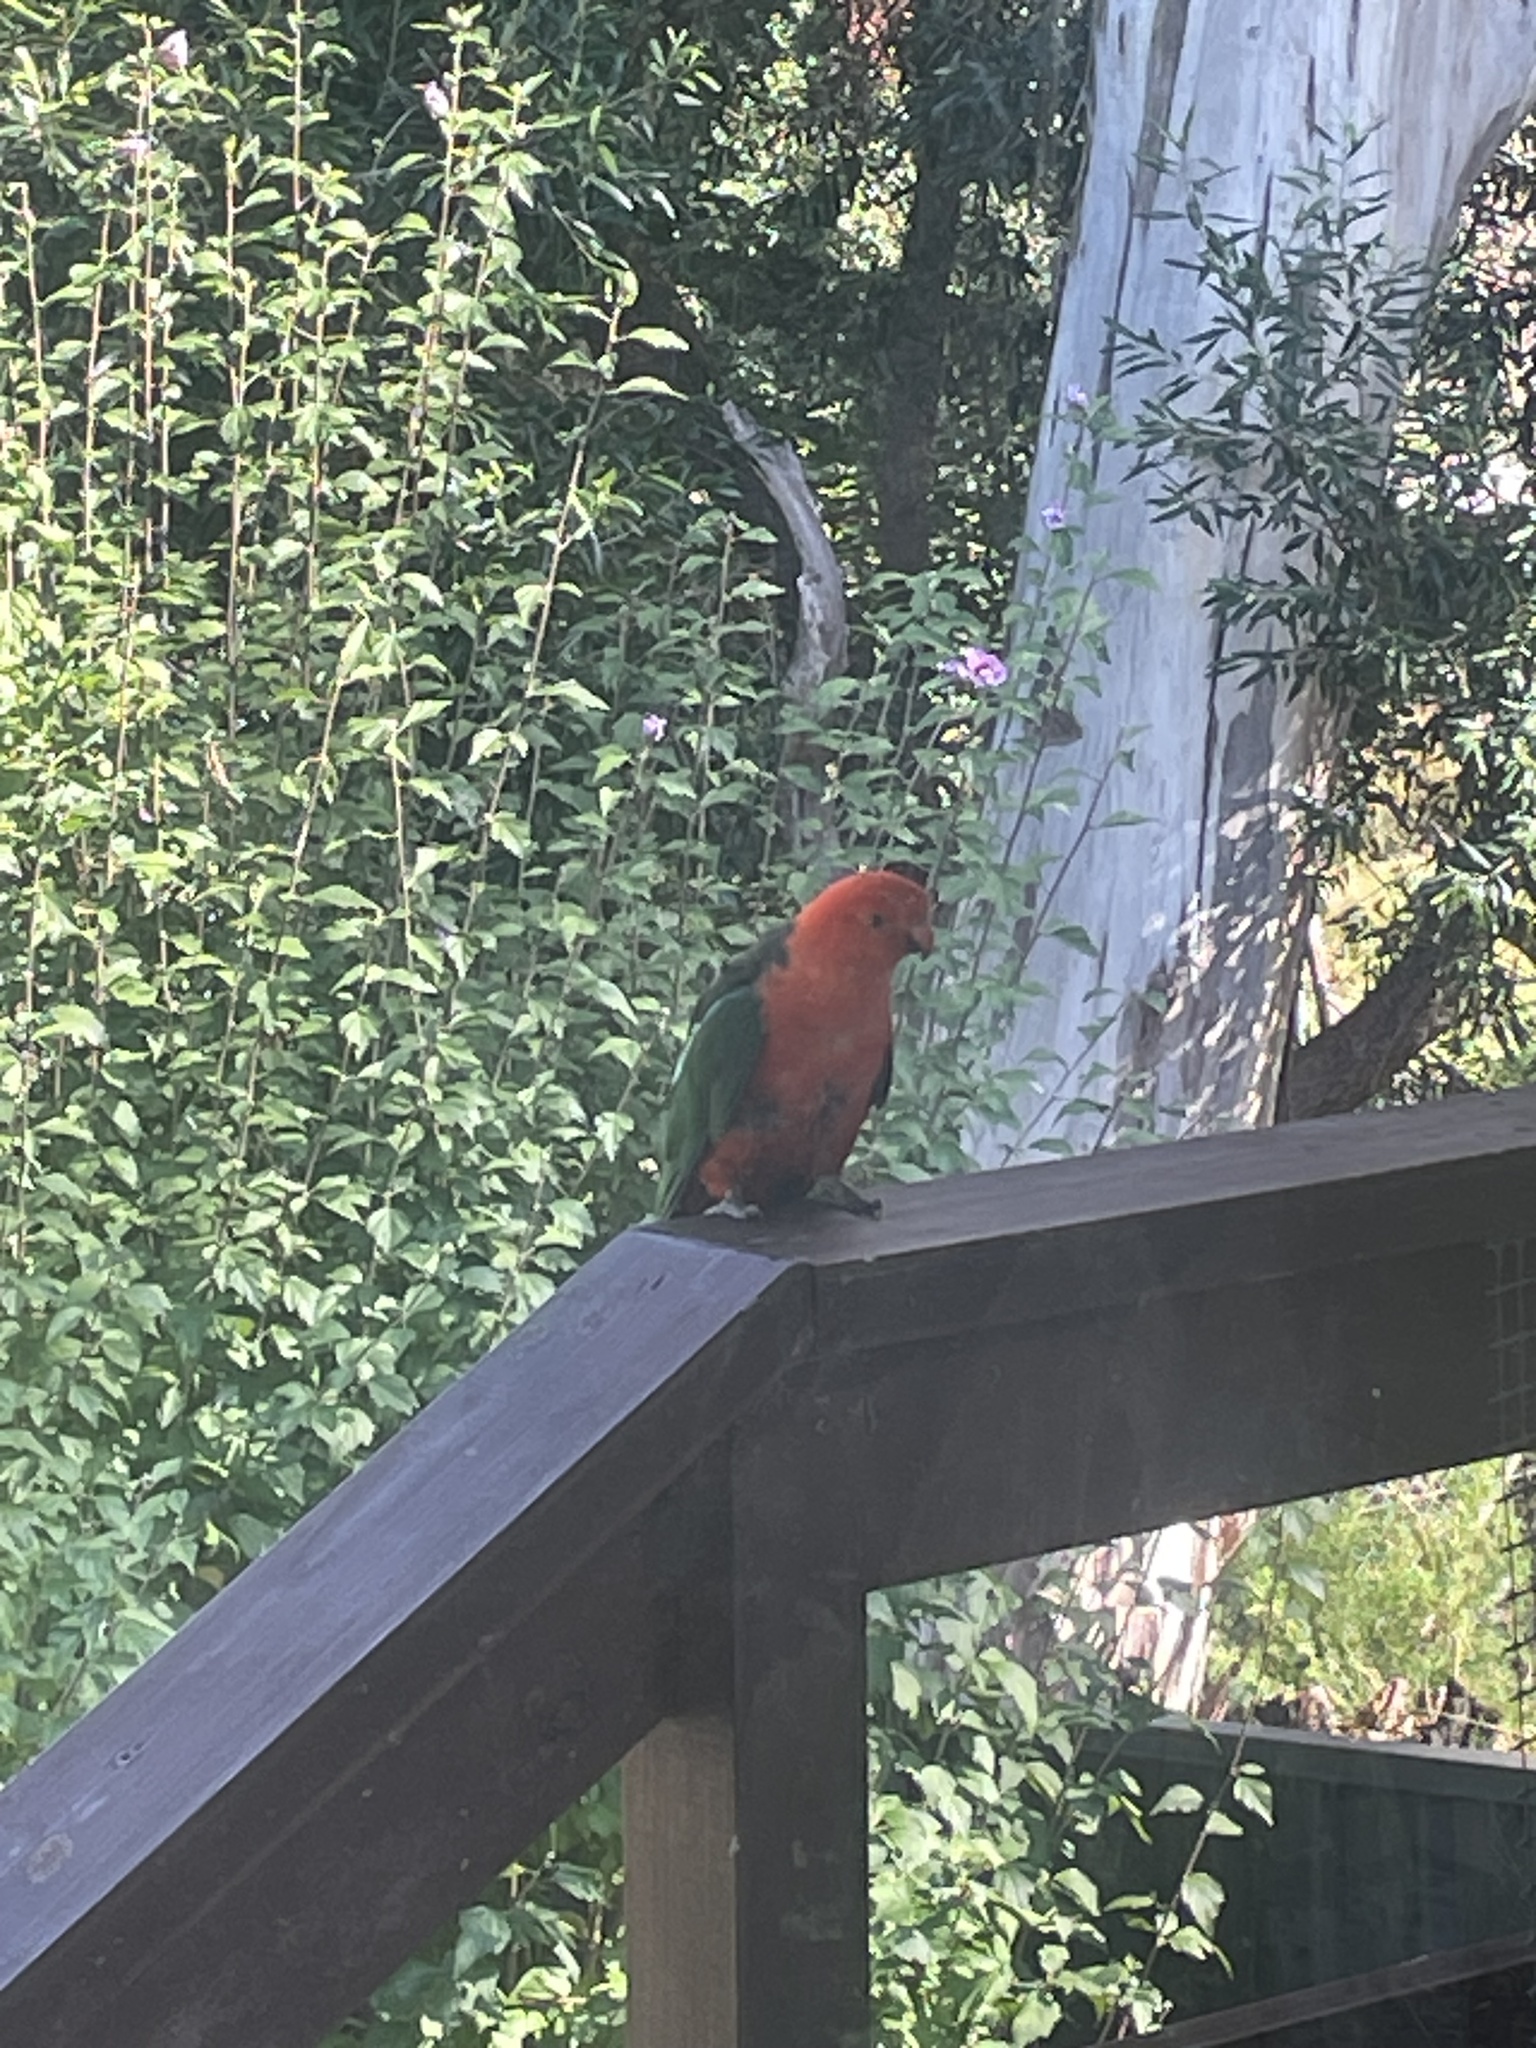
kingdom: Animalia
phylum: Chordata
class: Aves
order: Psittaciformes
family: Psittacidae
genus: Alisterus
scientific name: Alisterus scapularis
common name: Australian king parrot
